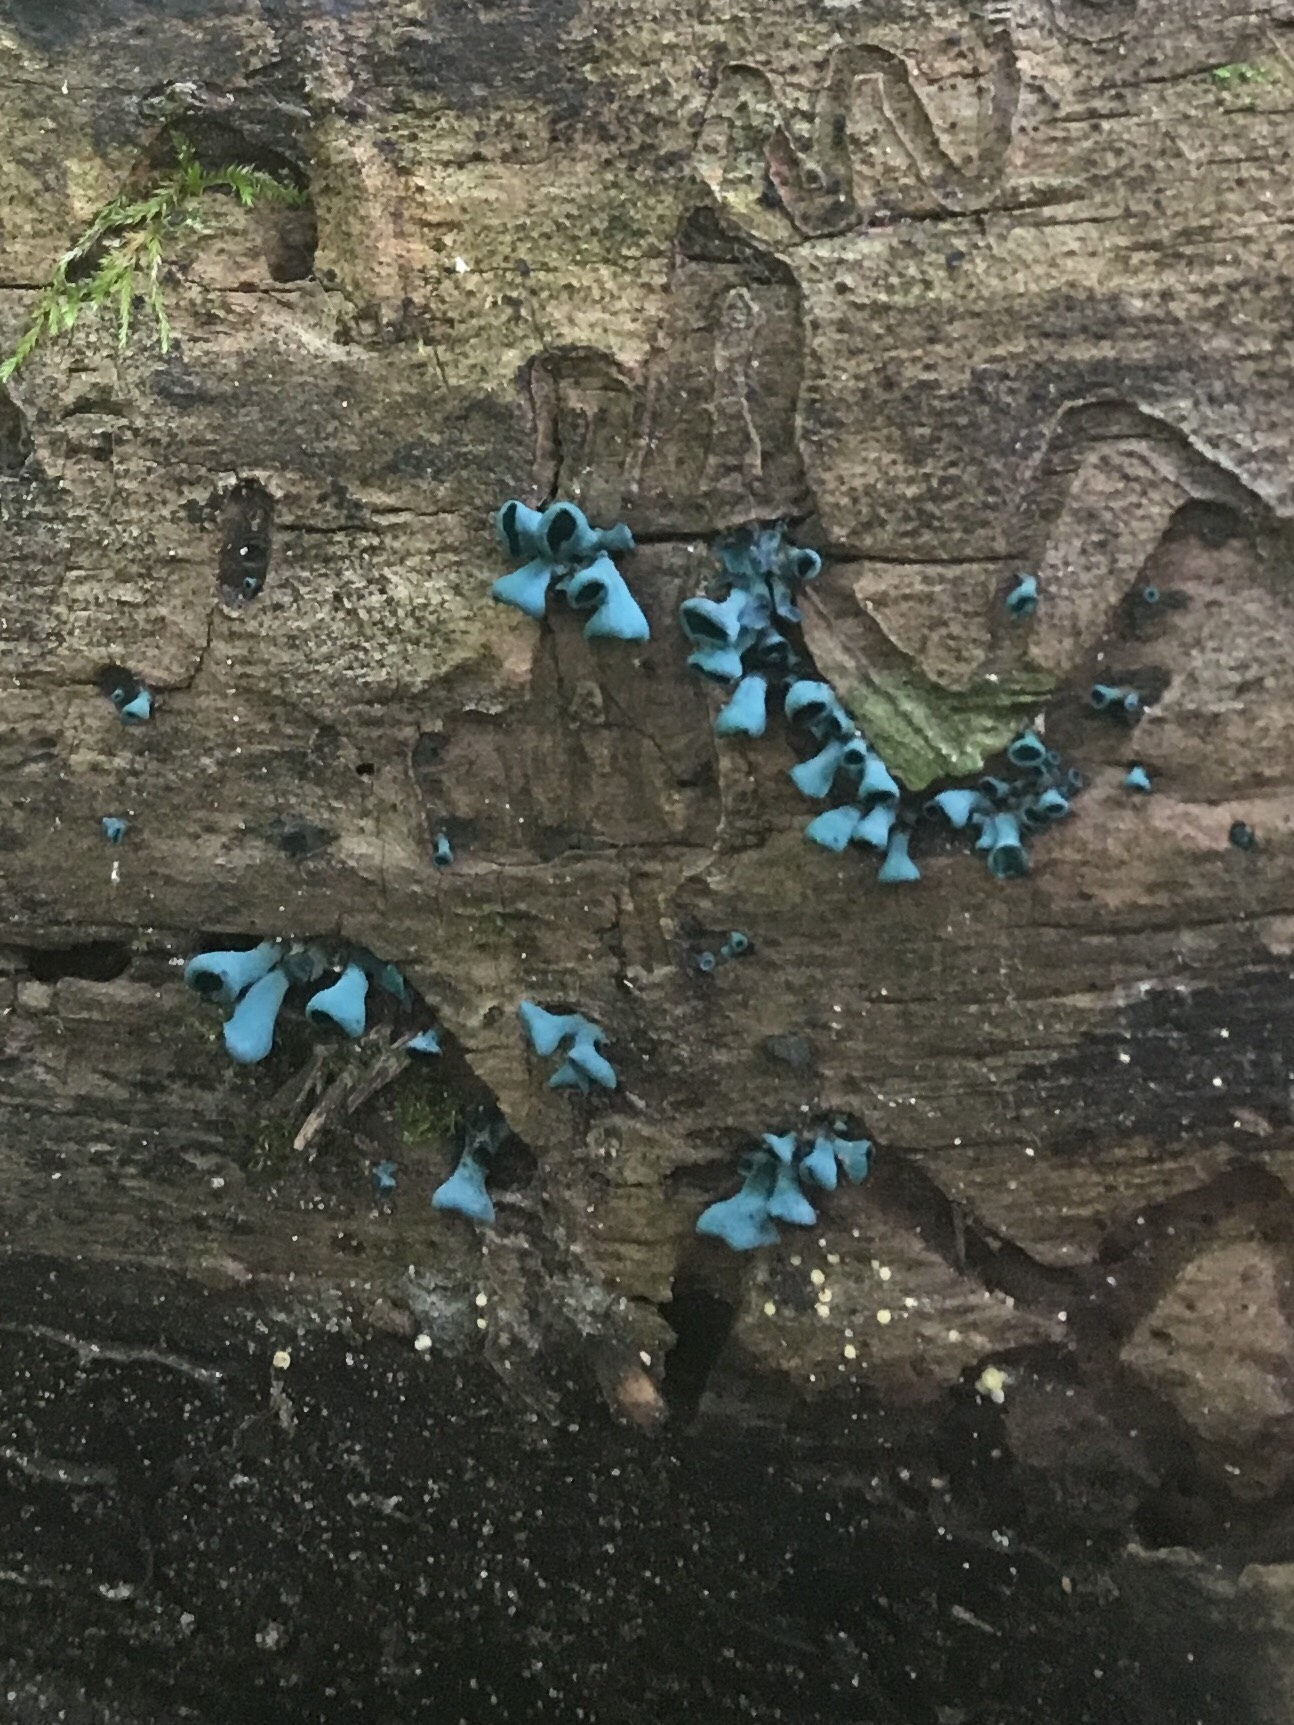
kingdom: Fungi
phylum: Ascomycota
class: Leotiomycetes
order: Helotiales
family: Chlorociboriaceae
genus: Chlorociboria
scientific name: Chlorociboria
